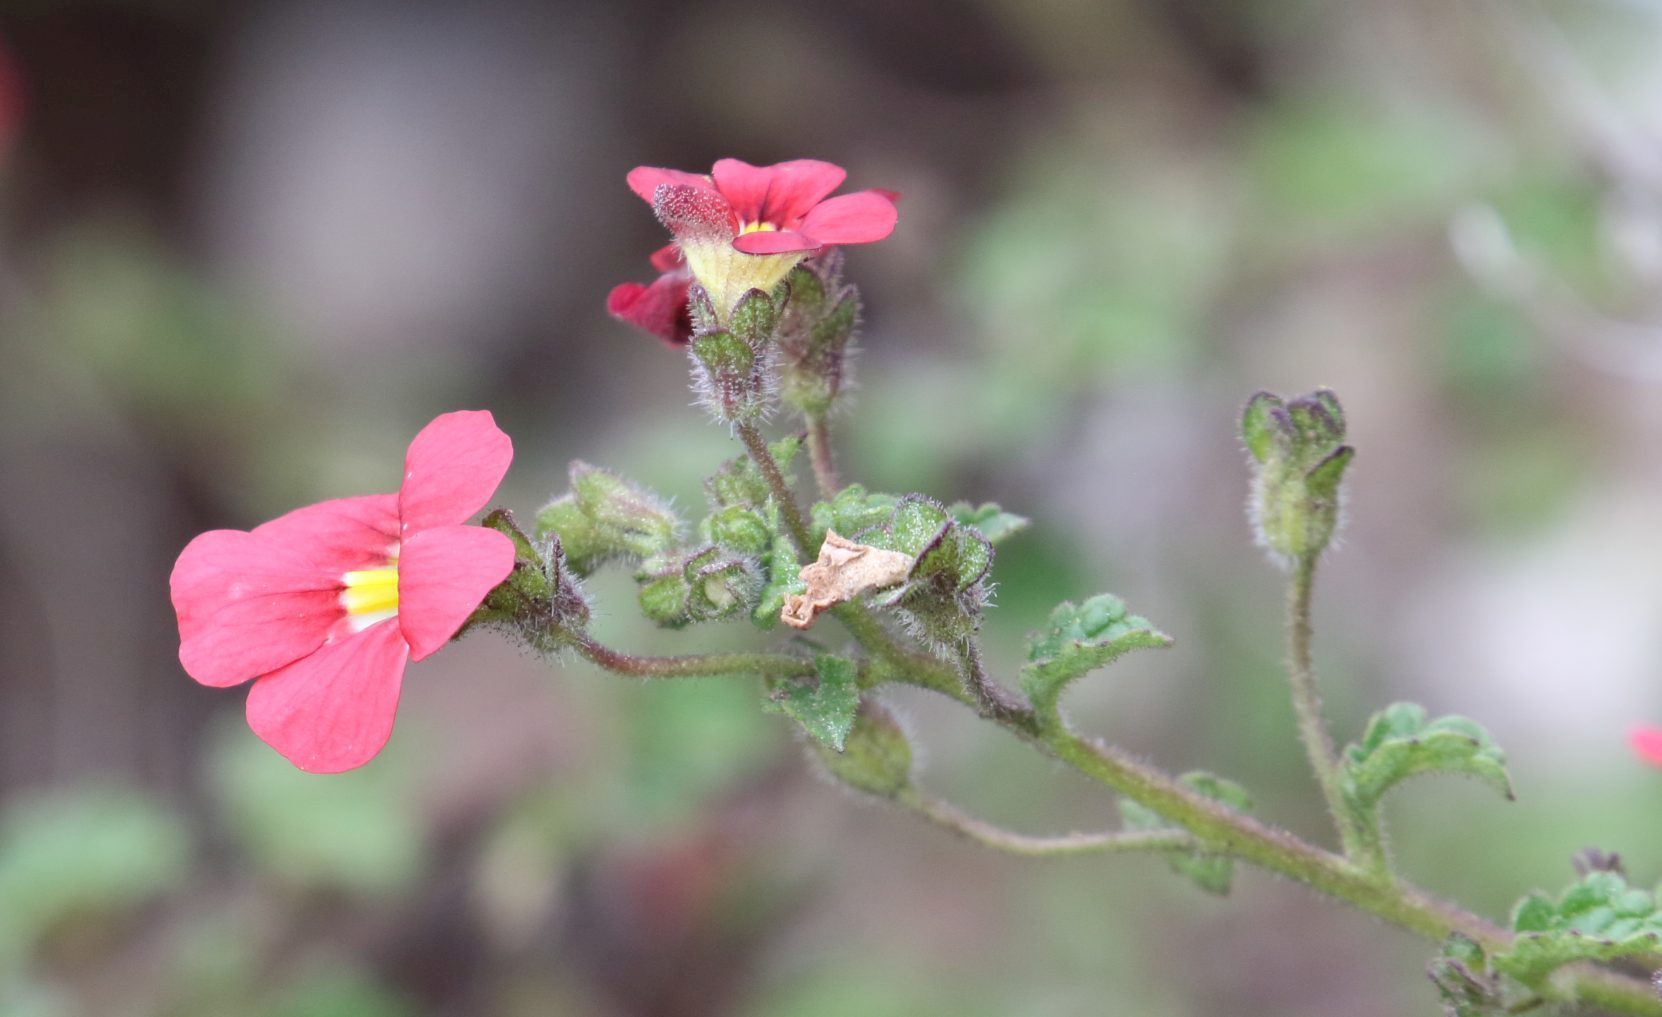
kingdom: Plantae
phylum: Tracheophyta
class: Magnoliopsida
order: Lamiales
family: Scrophulariaceae
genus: Jamesbrittenia
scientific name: Jamesbrittenia breviflora
